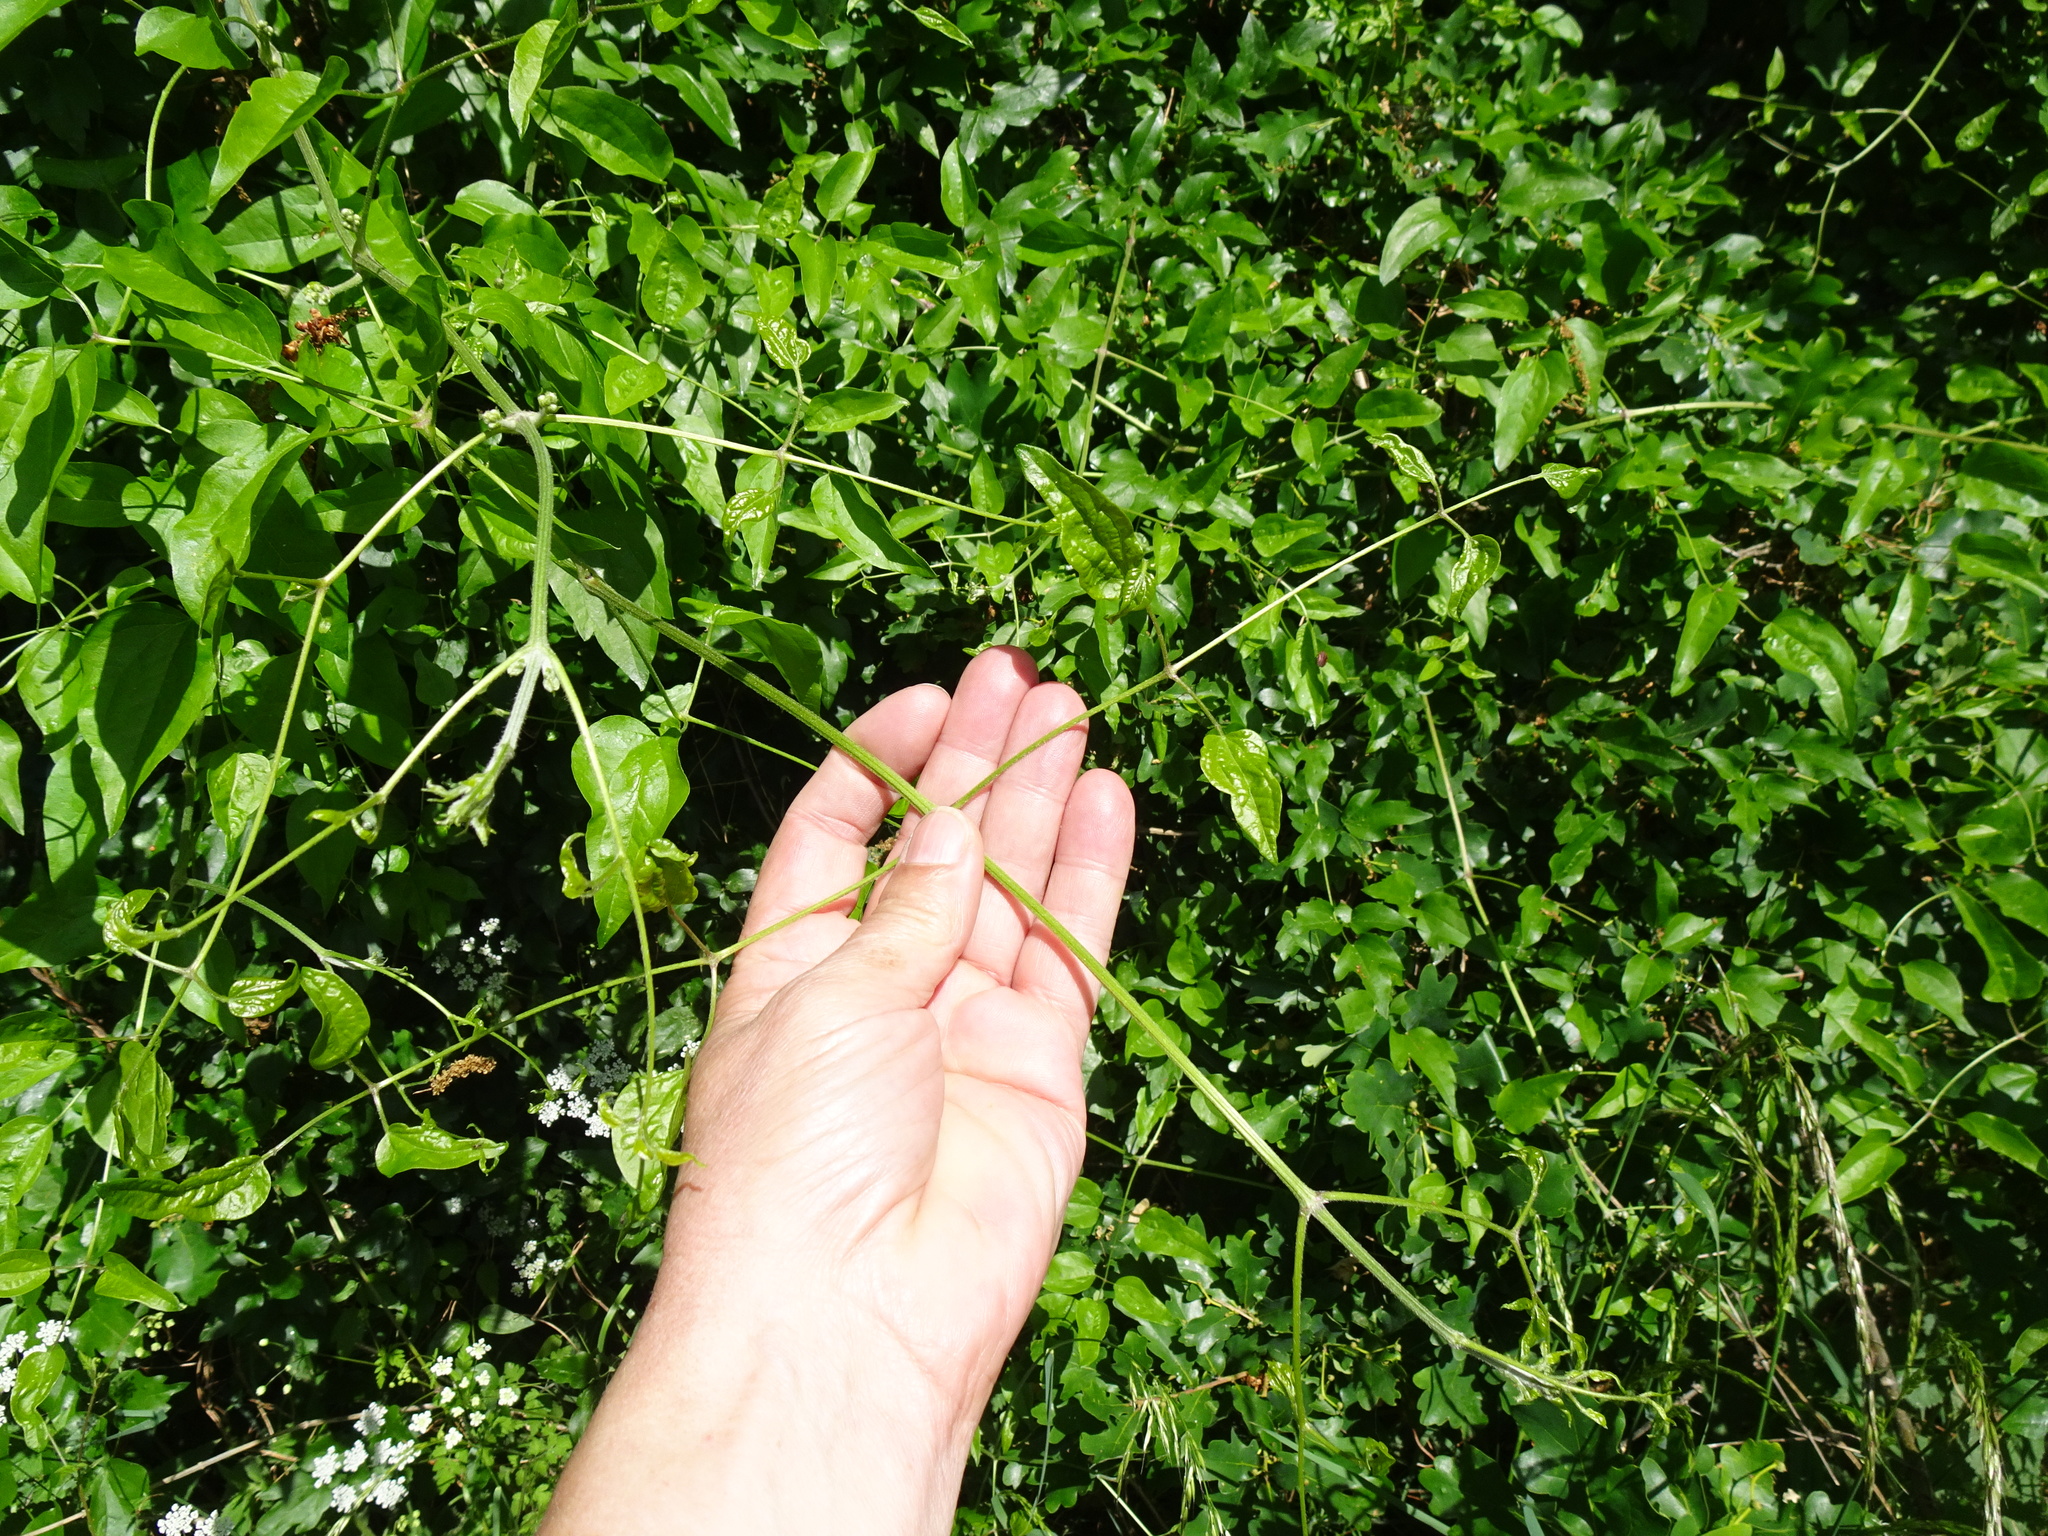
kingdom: Plantae
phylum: Tracheophyta
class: Magnoliopsida
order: Ranunculales
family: Ranunculaceae
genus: Clematis
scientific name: Clematis vitalba
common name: Evergreen clematis
